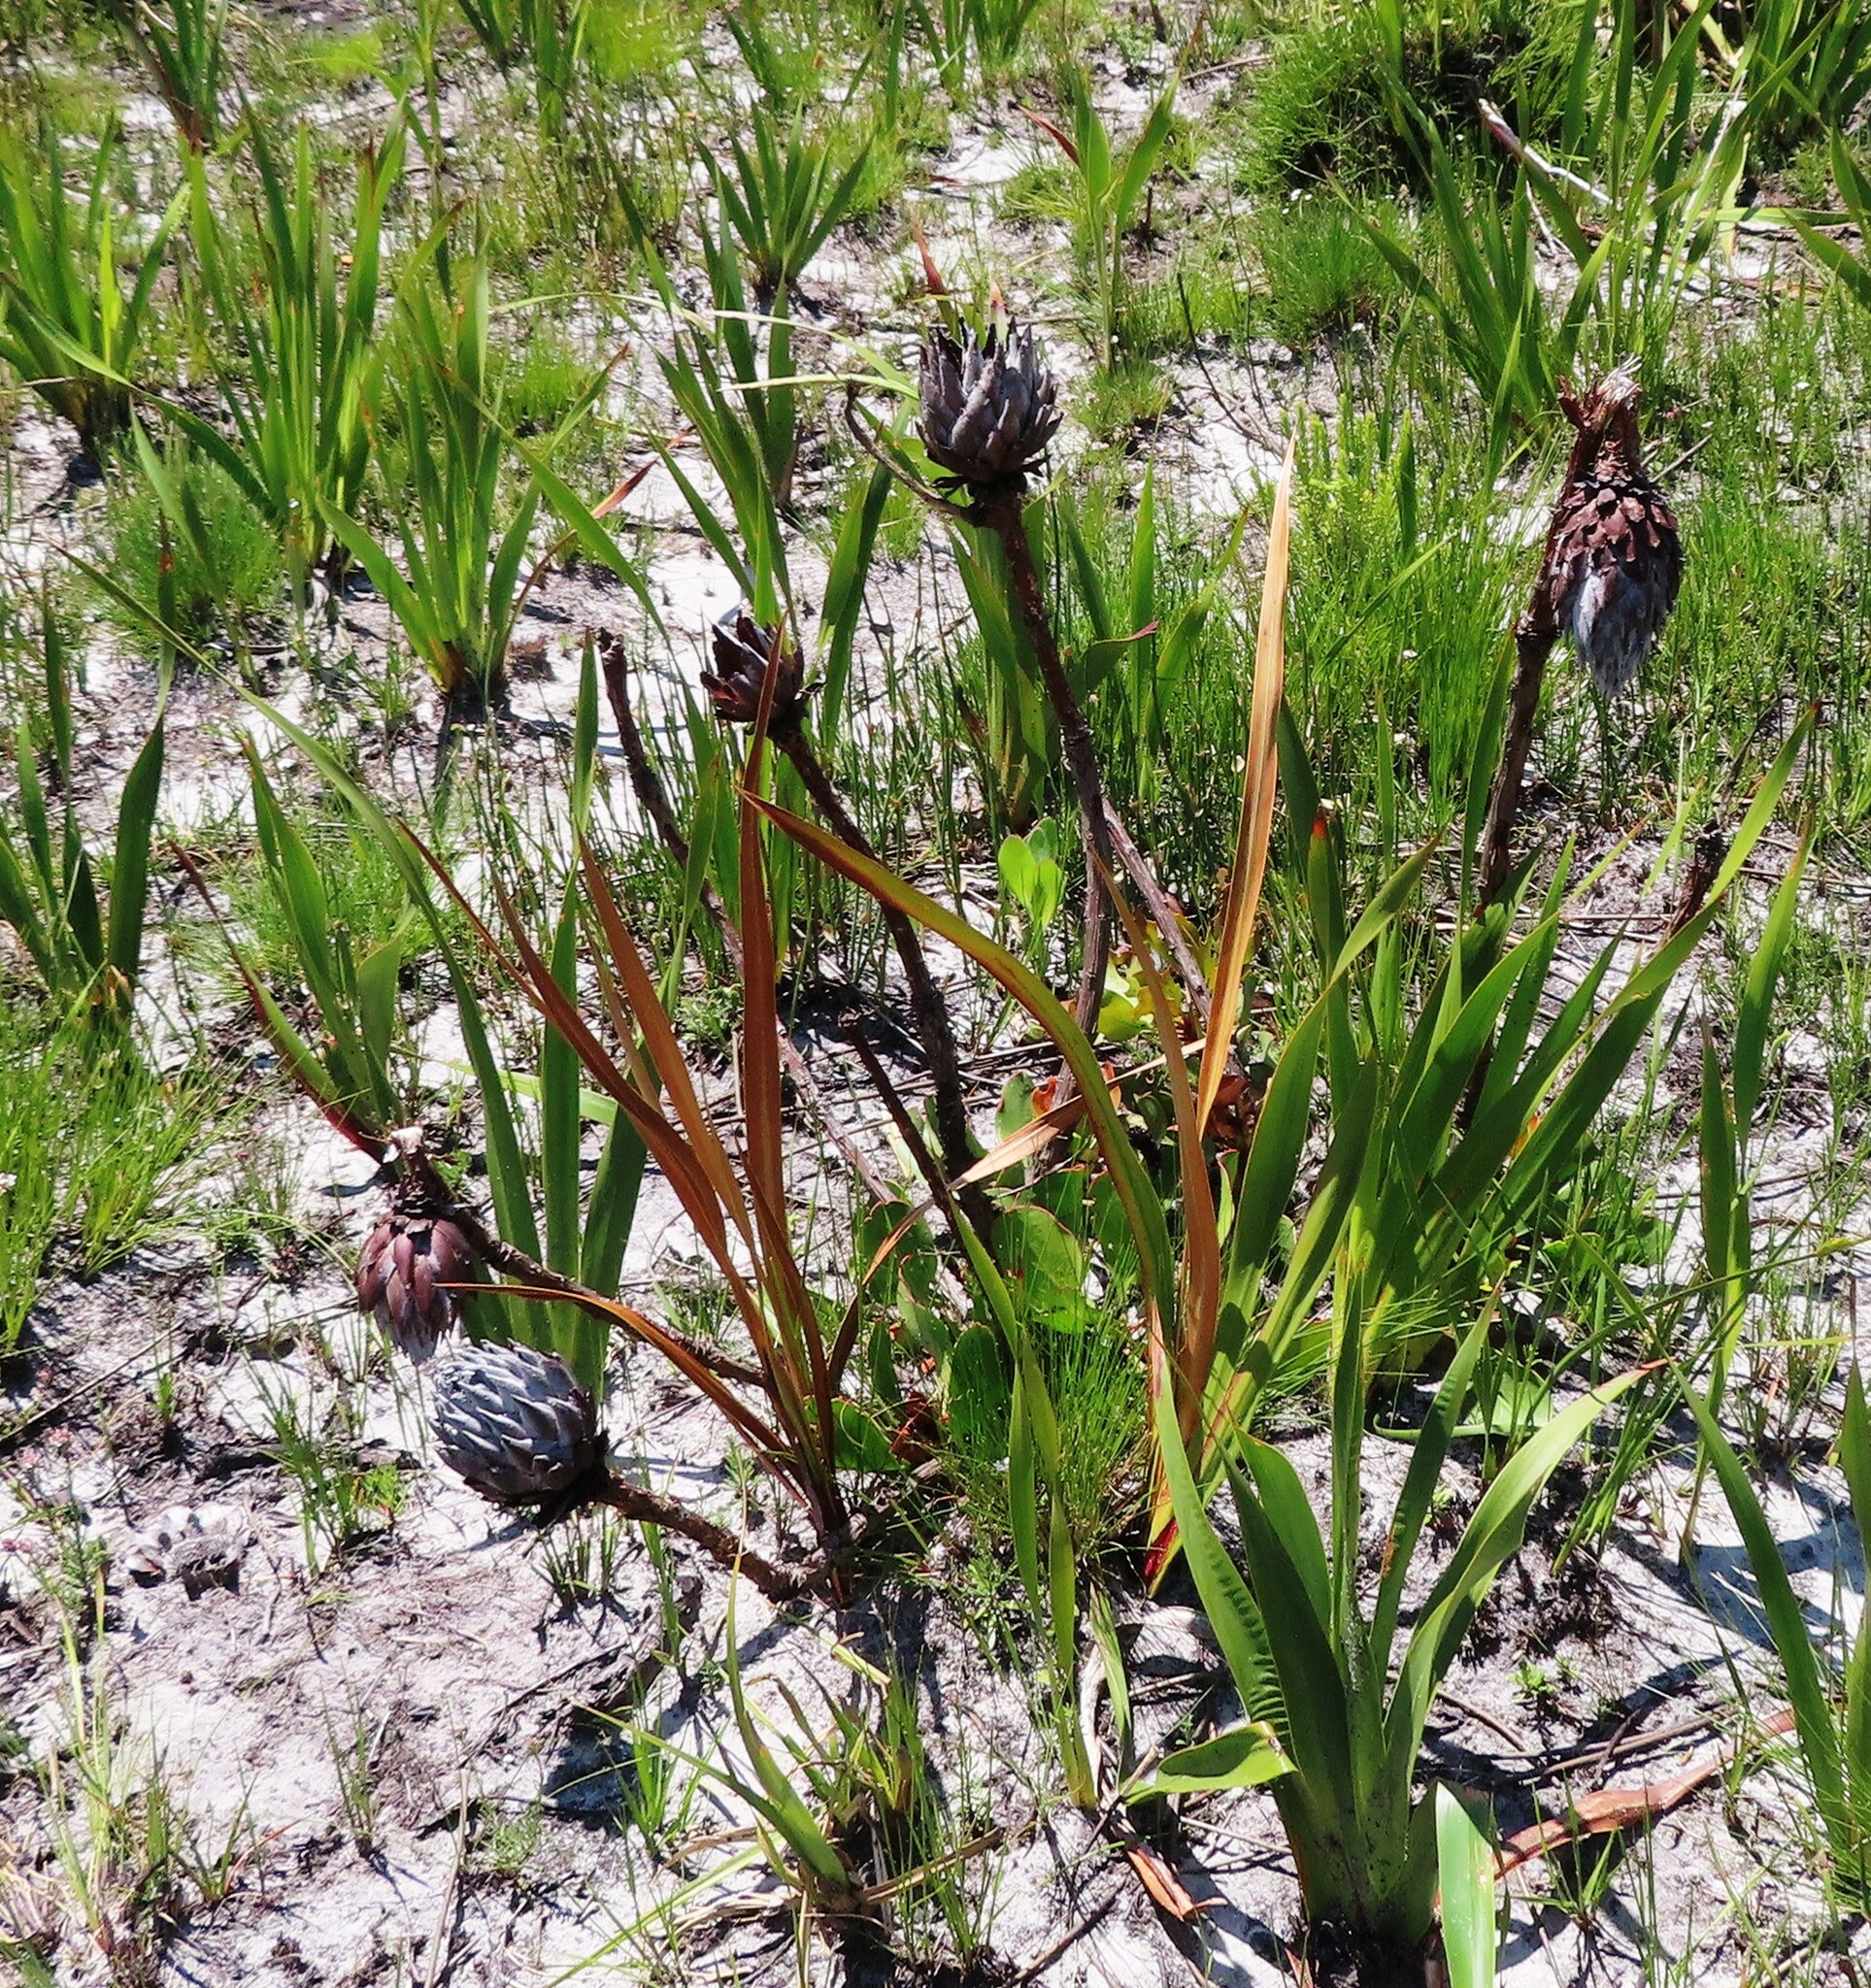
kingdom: Plantae
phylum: Tracheophyta
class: Magnoliopsida
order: Proteales
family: Proteaceae
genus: Protea
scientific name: Protea cynaroides
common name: King protea
